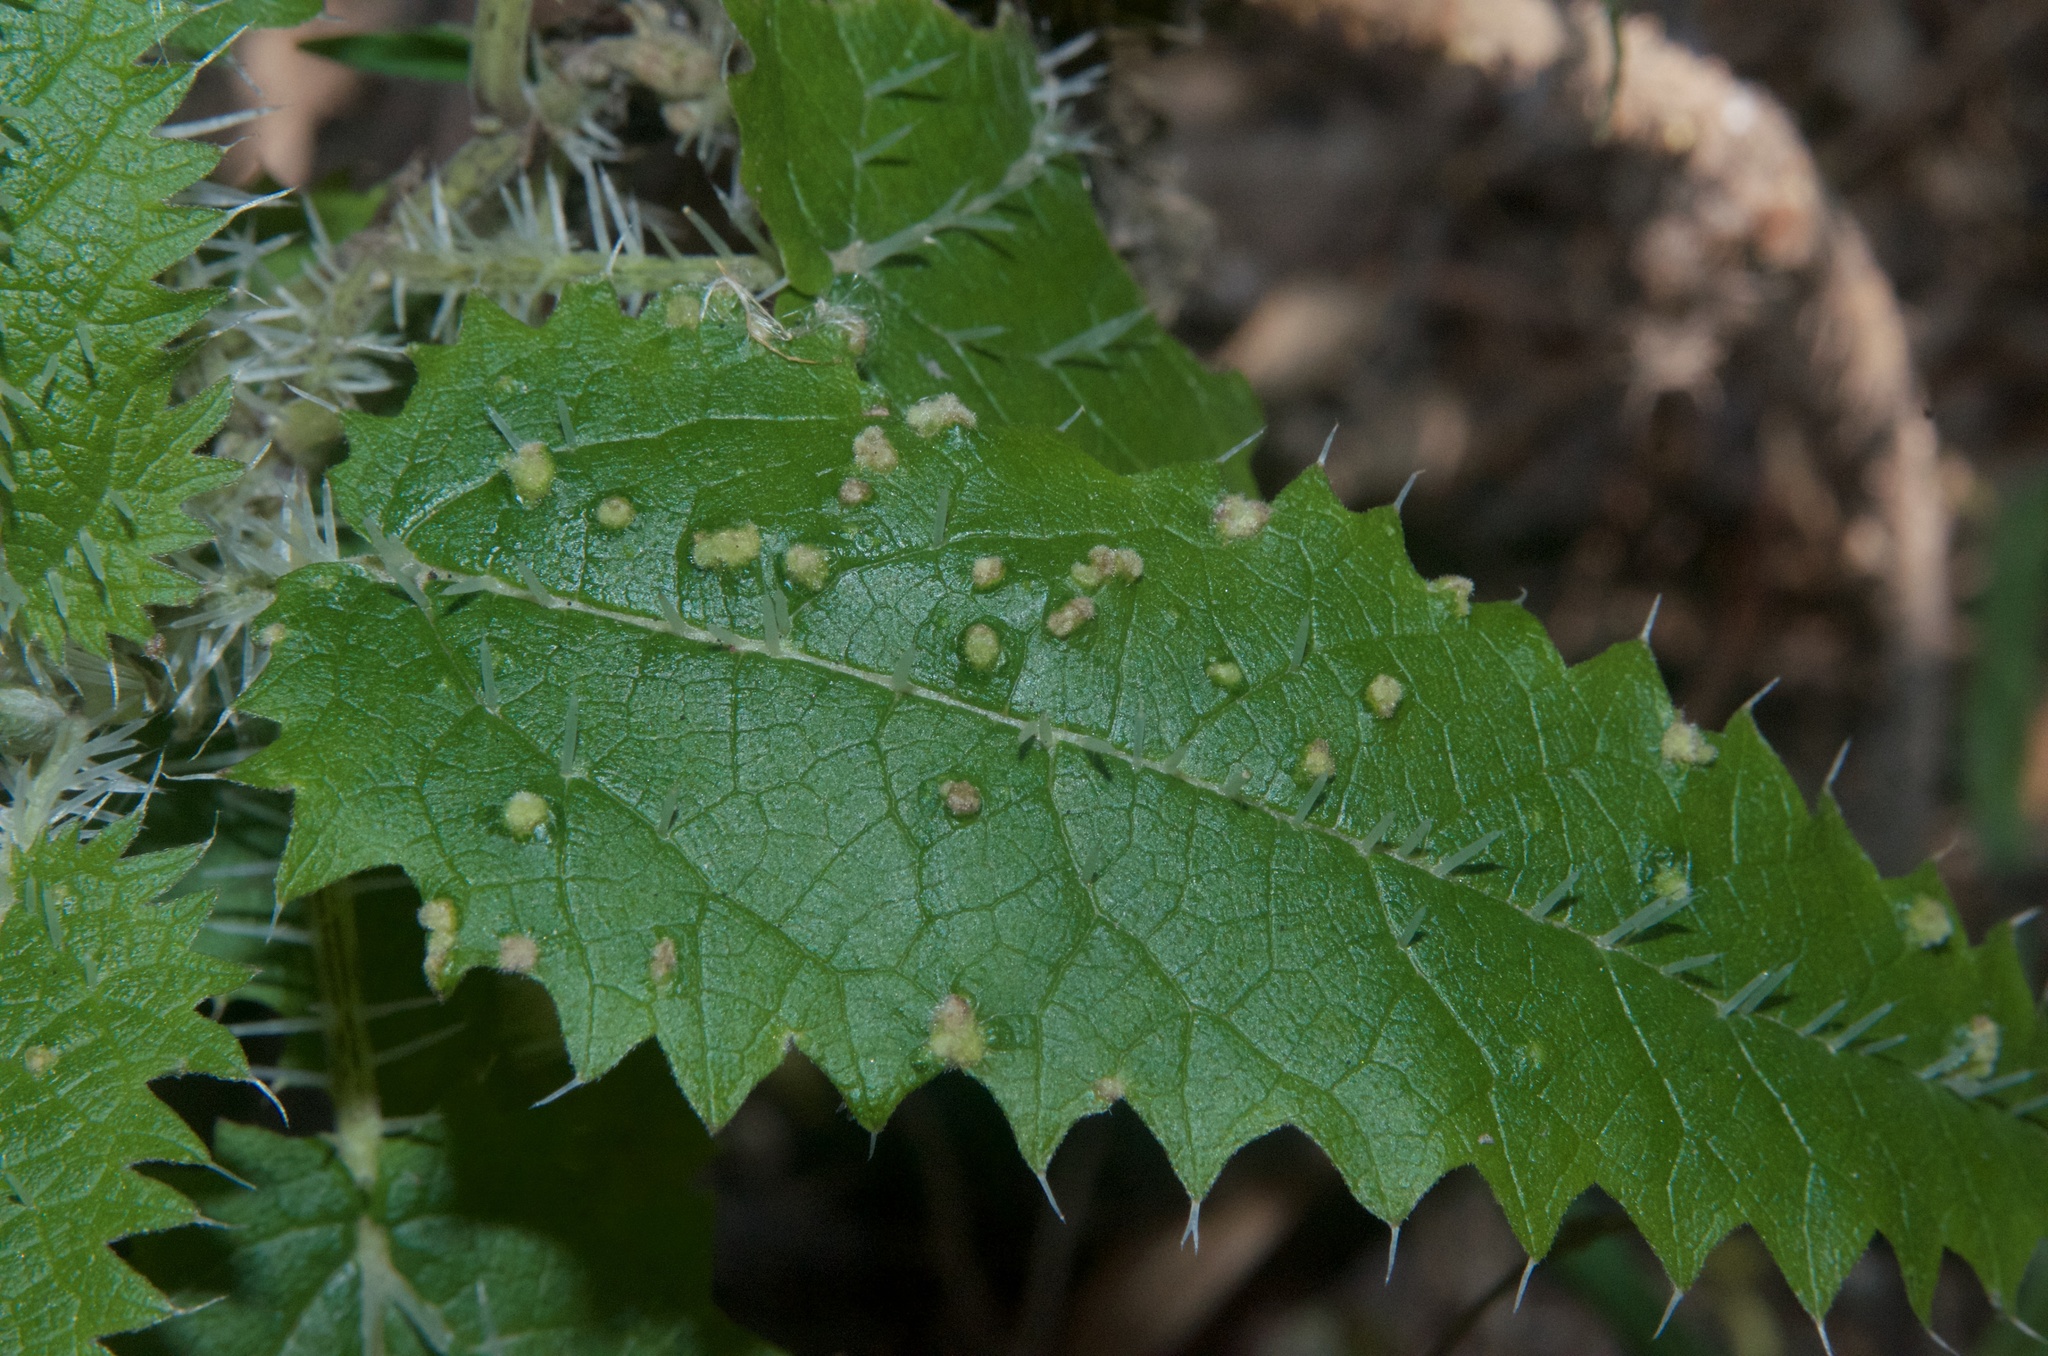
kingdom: Animalia
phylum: Arthropoda
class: Arachnida
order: Trombidiformes
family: Eriophyidae
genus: Vittacus
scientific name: Vittacus
